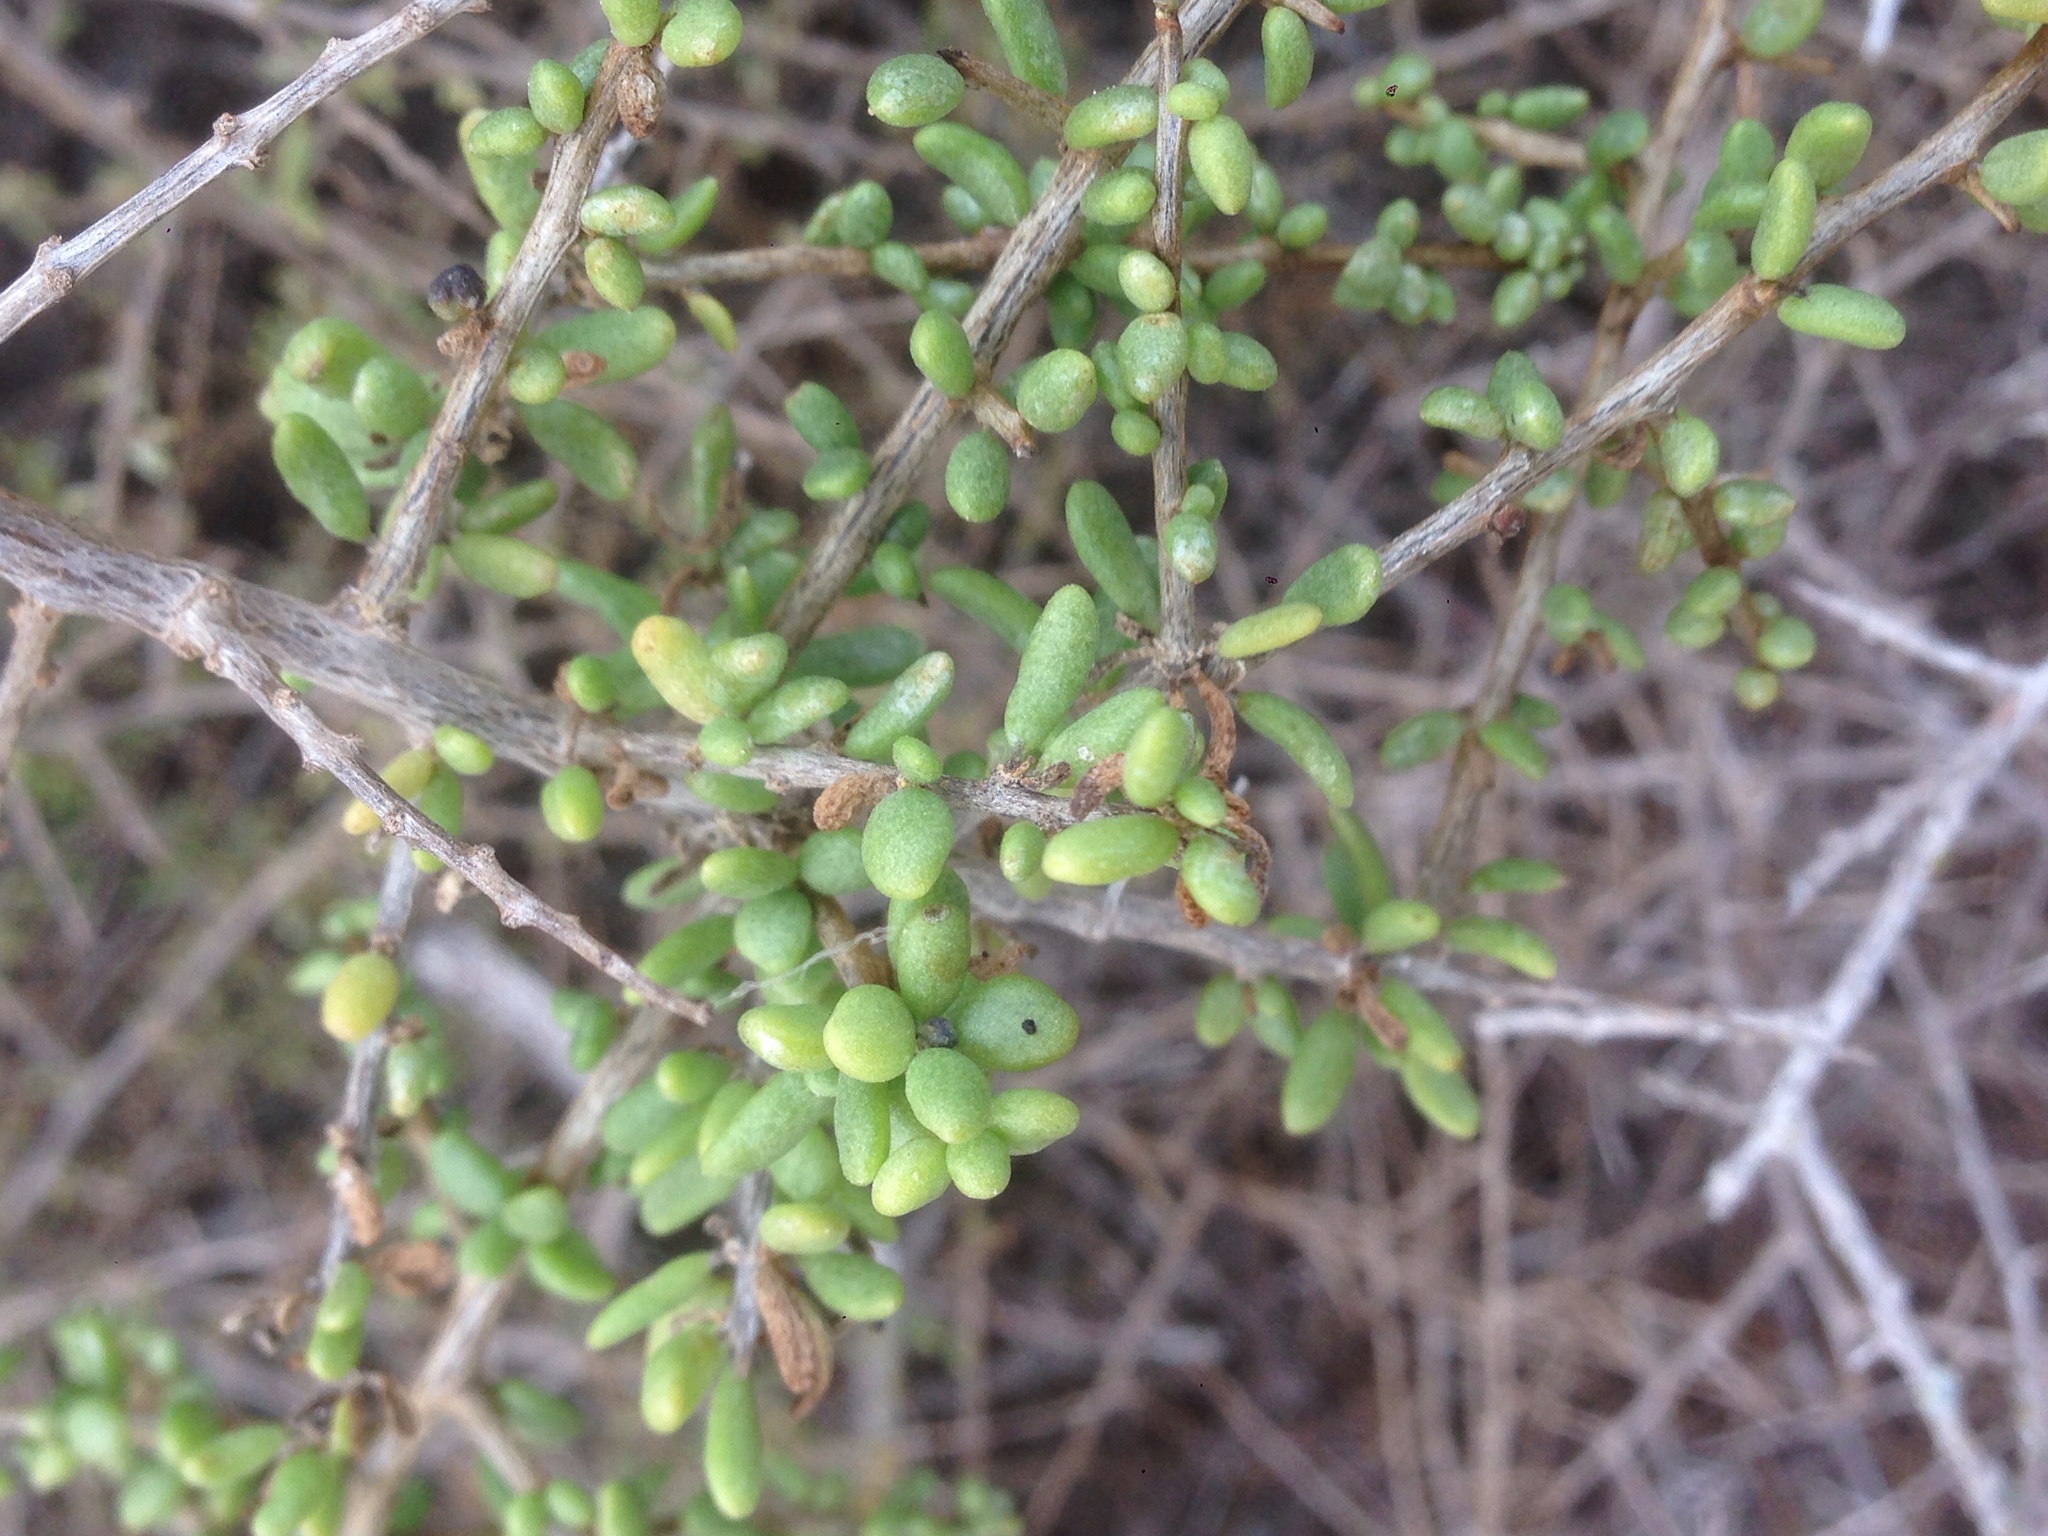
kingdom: Plantae
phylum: Tracheophyta
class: Magnoliopsida
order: Solanales
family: Solanaceae
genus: Lycium
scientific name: Lycium californicum
